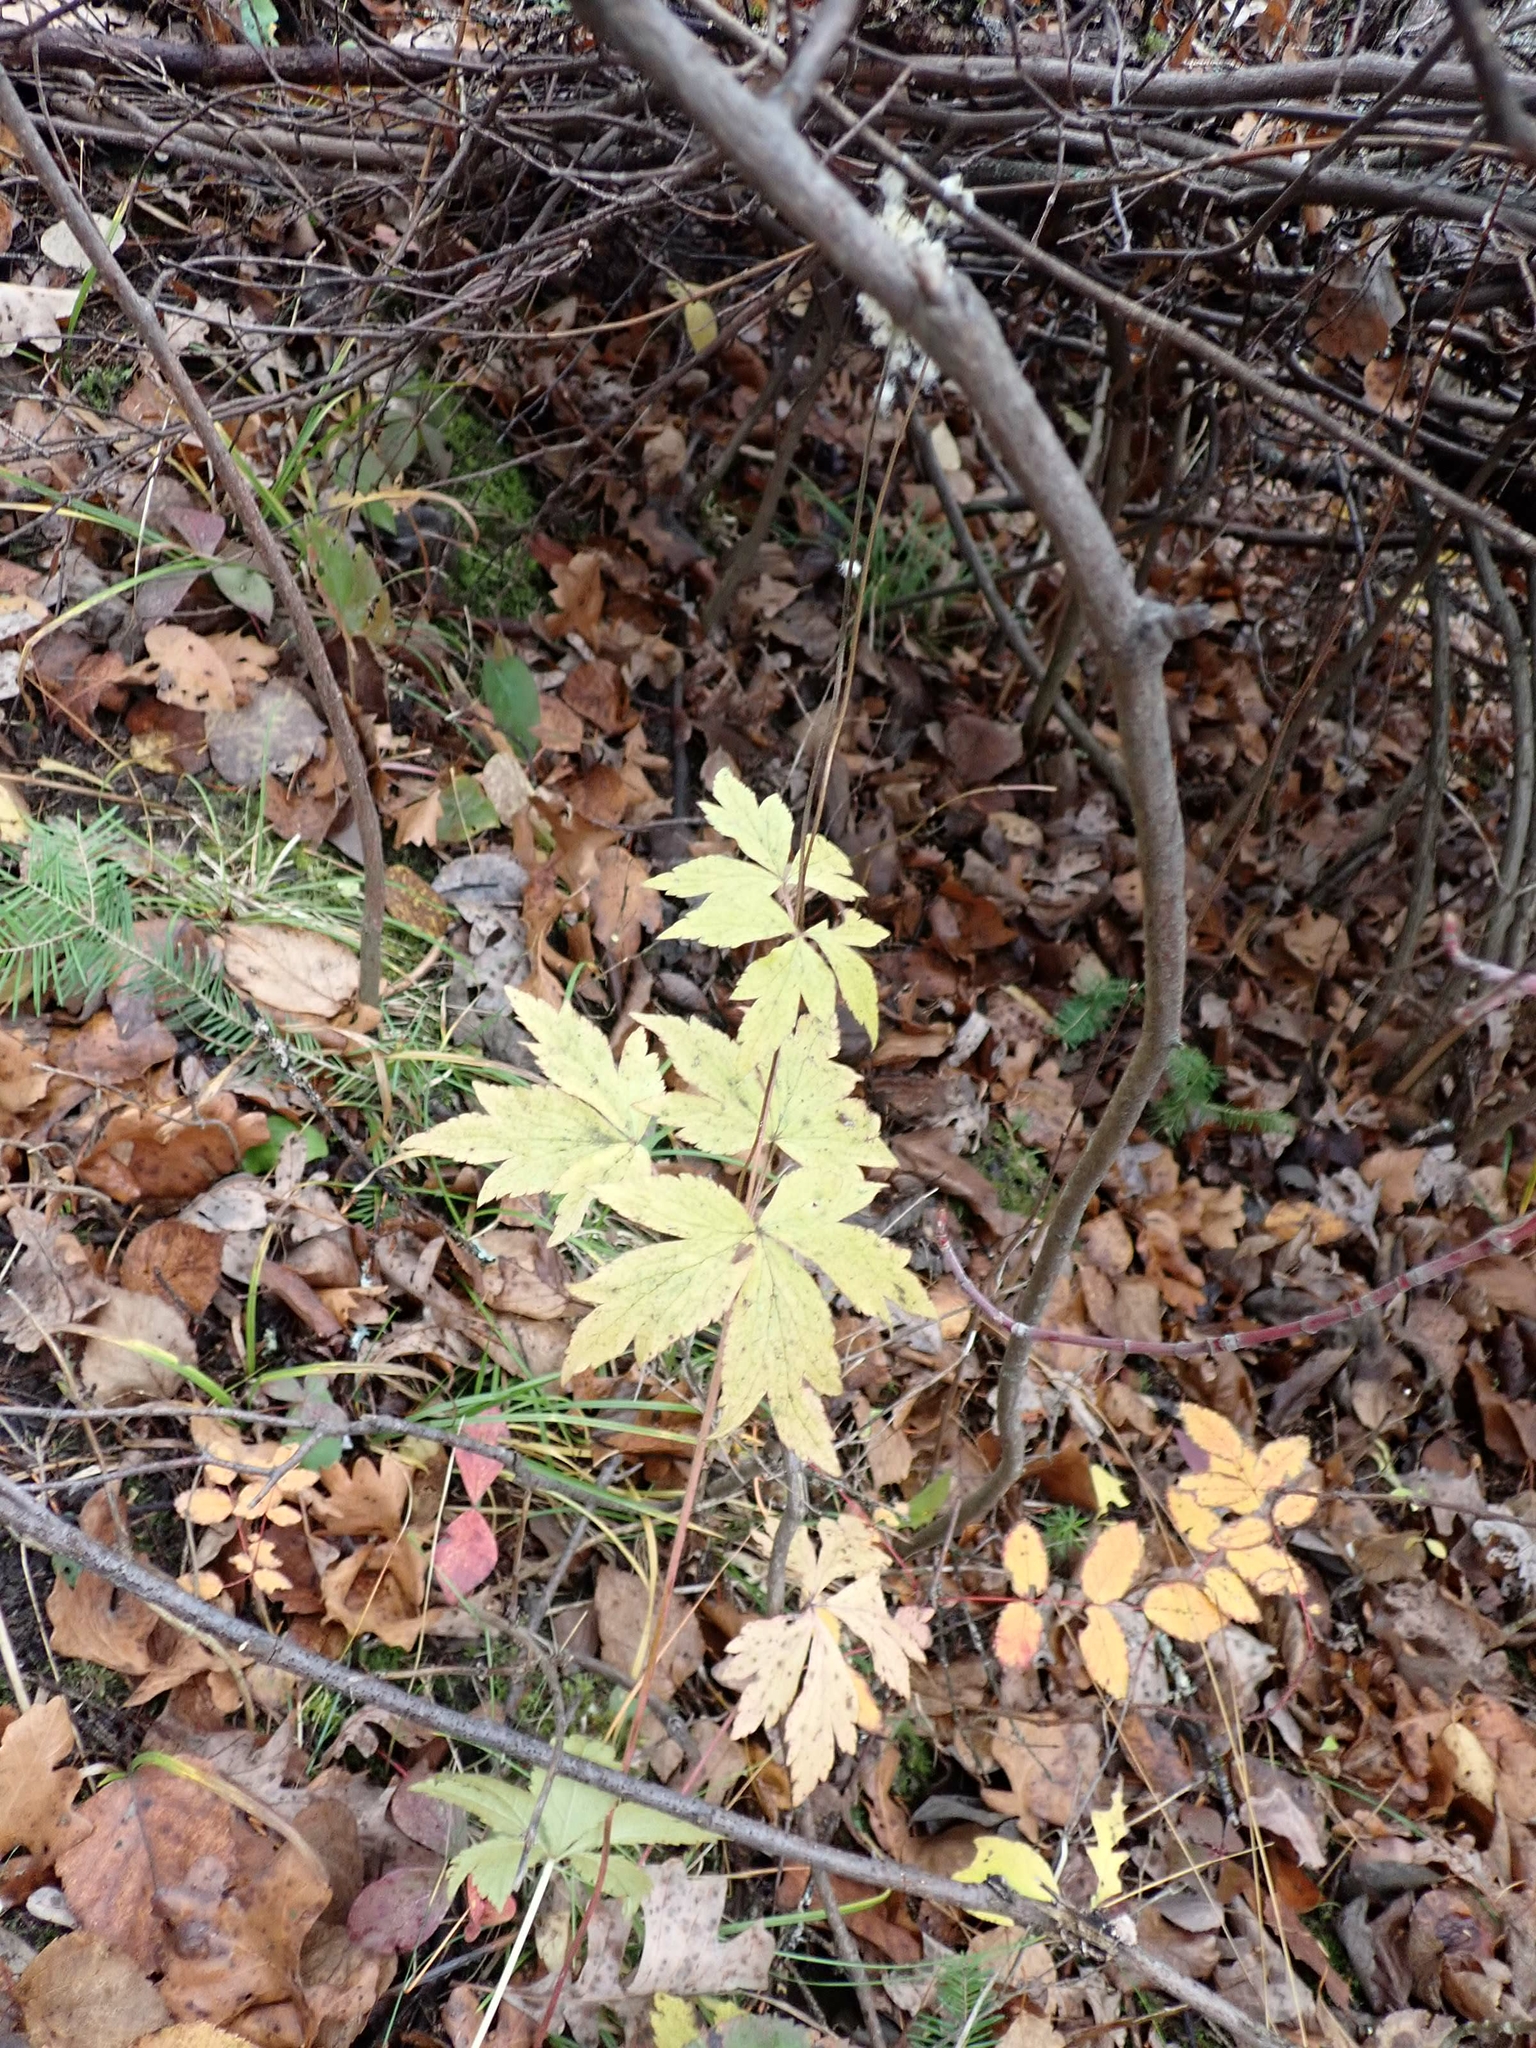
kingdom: Plantae
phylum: Tracheophyta
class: Magnoliopsida
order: Ranunculales
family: Ranunculaceae
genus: Anemone
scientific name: Anemone virginiana
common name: Tall anemone
